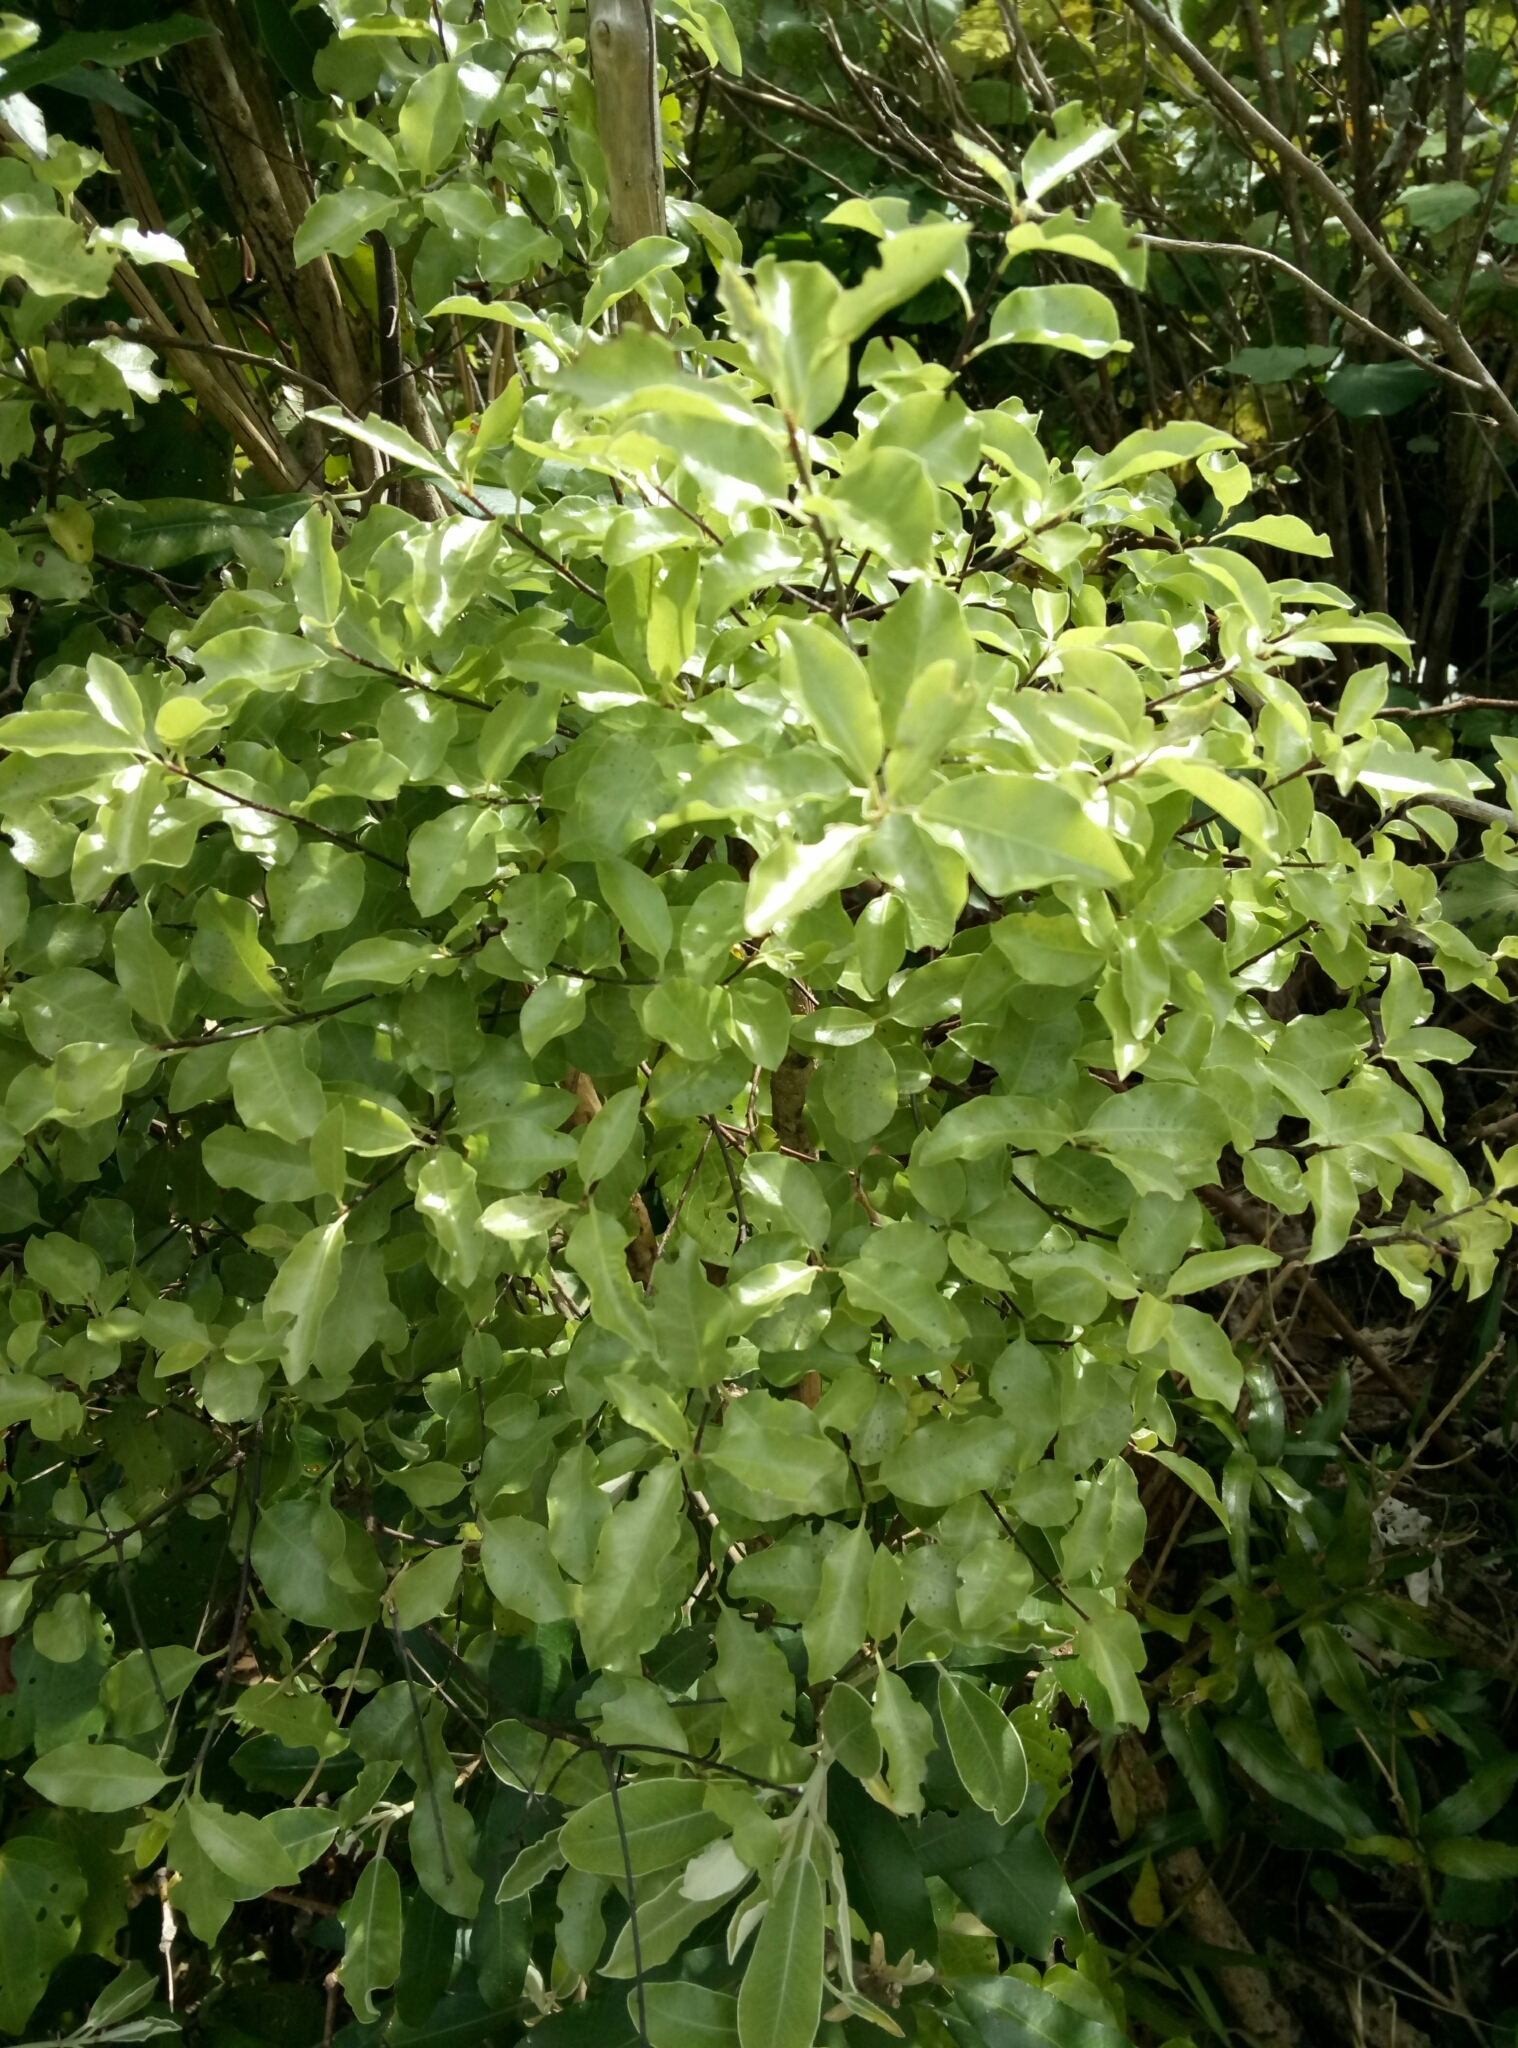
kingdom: Plantae
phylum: Tracheophyta
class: Magnoliopsida
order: Apiales
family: Pittosporaceae
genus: Pittosporum
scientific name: Pittosporum tenuifolium
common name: Kohuhu
